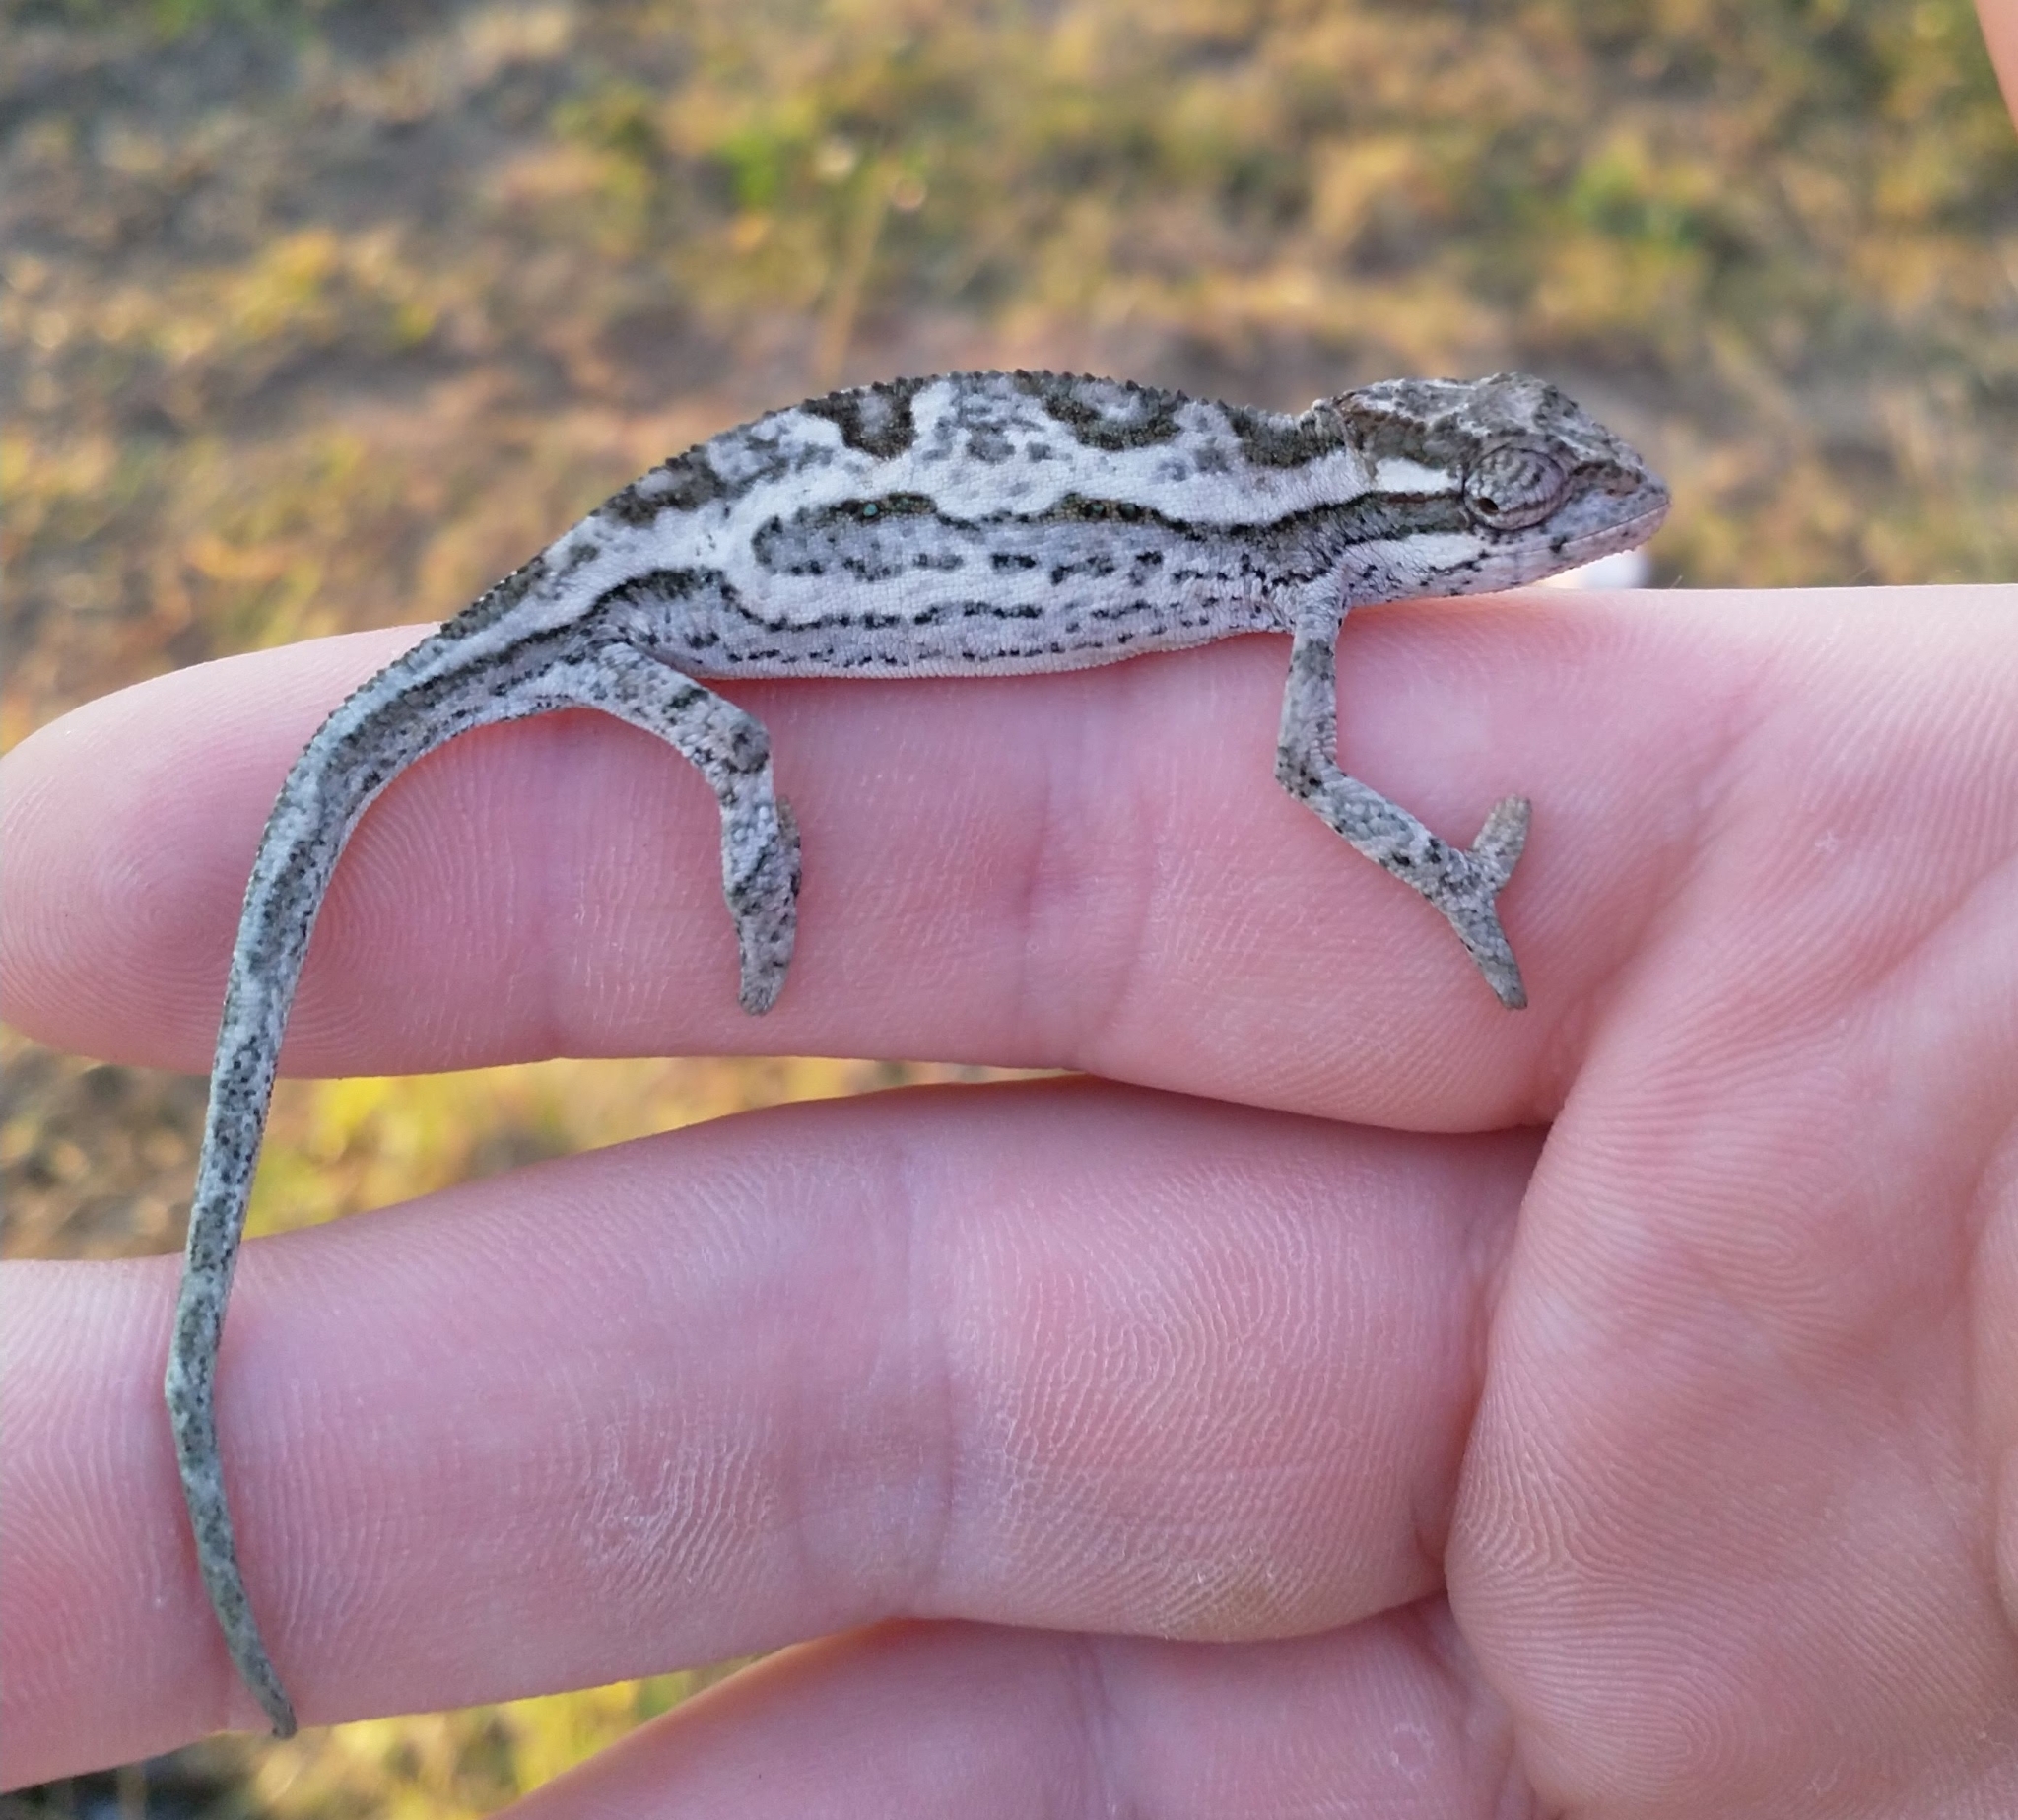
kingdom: Animalia
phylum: Chordata
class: Squamata
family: Chamaeleonidae
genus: Bradypodion
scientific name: Bradypodion melanocephalum
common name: Black-headed dwarf chameleon
